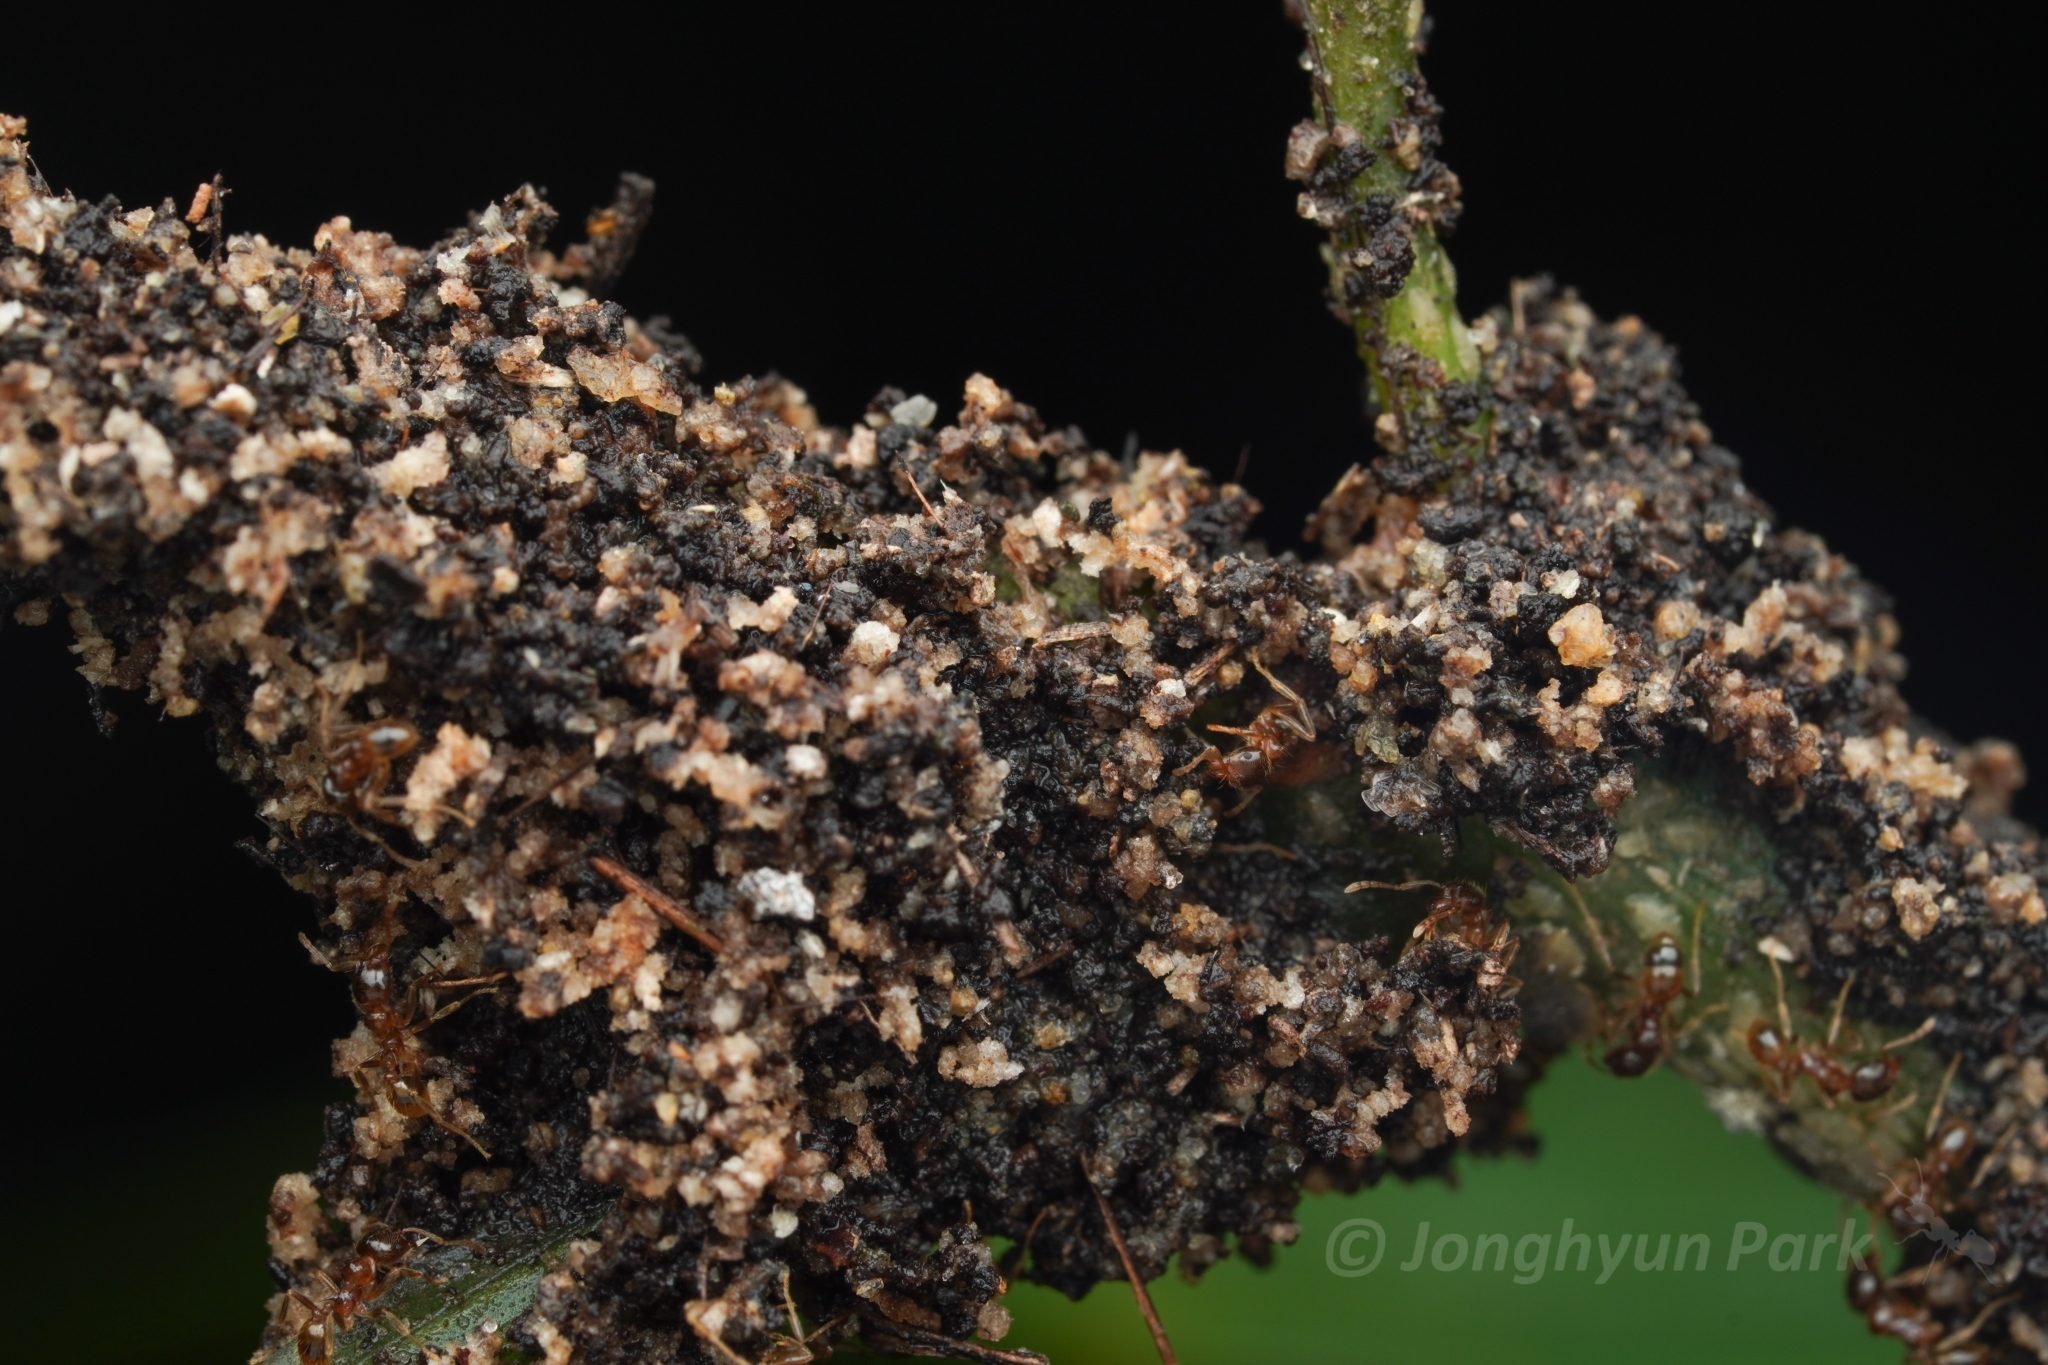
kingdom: Animalia
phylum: Arthropoda
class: Insecta
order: Hymenoptera
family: Formicidae
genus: Lophomyrmex
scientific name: Lophomyrmex lucidus
